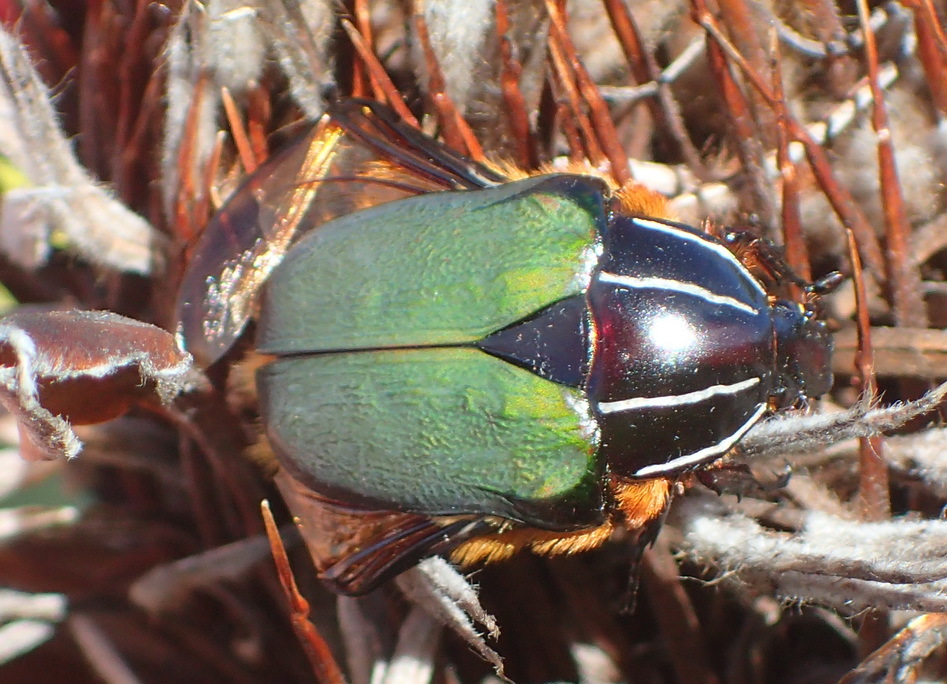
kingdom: Animalia
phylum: Arthropoda
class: Insecta
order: Coleoptera
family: Scarabaeidae
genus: Trichostetha
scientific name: Trichostetha fascicularis
